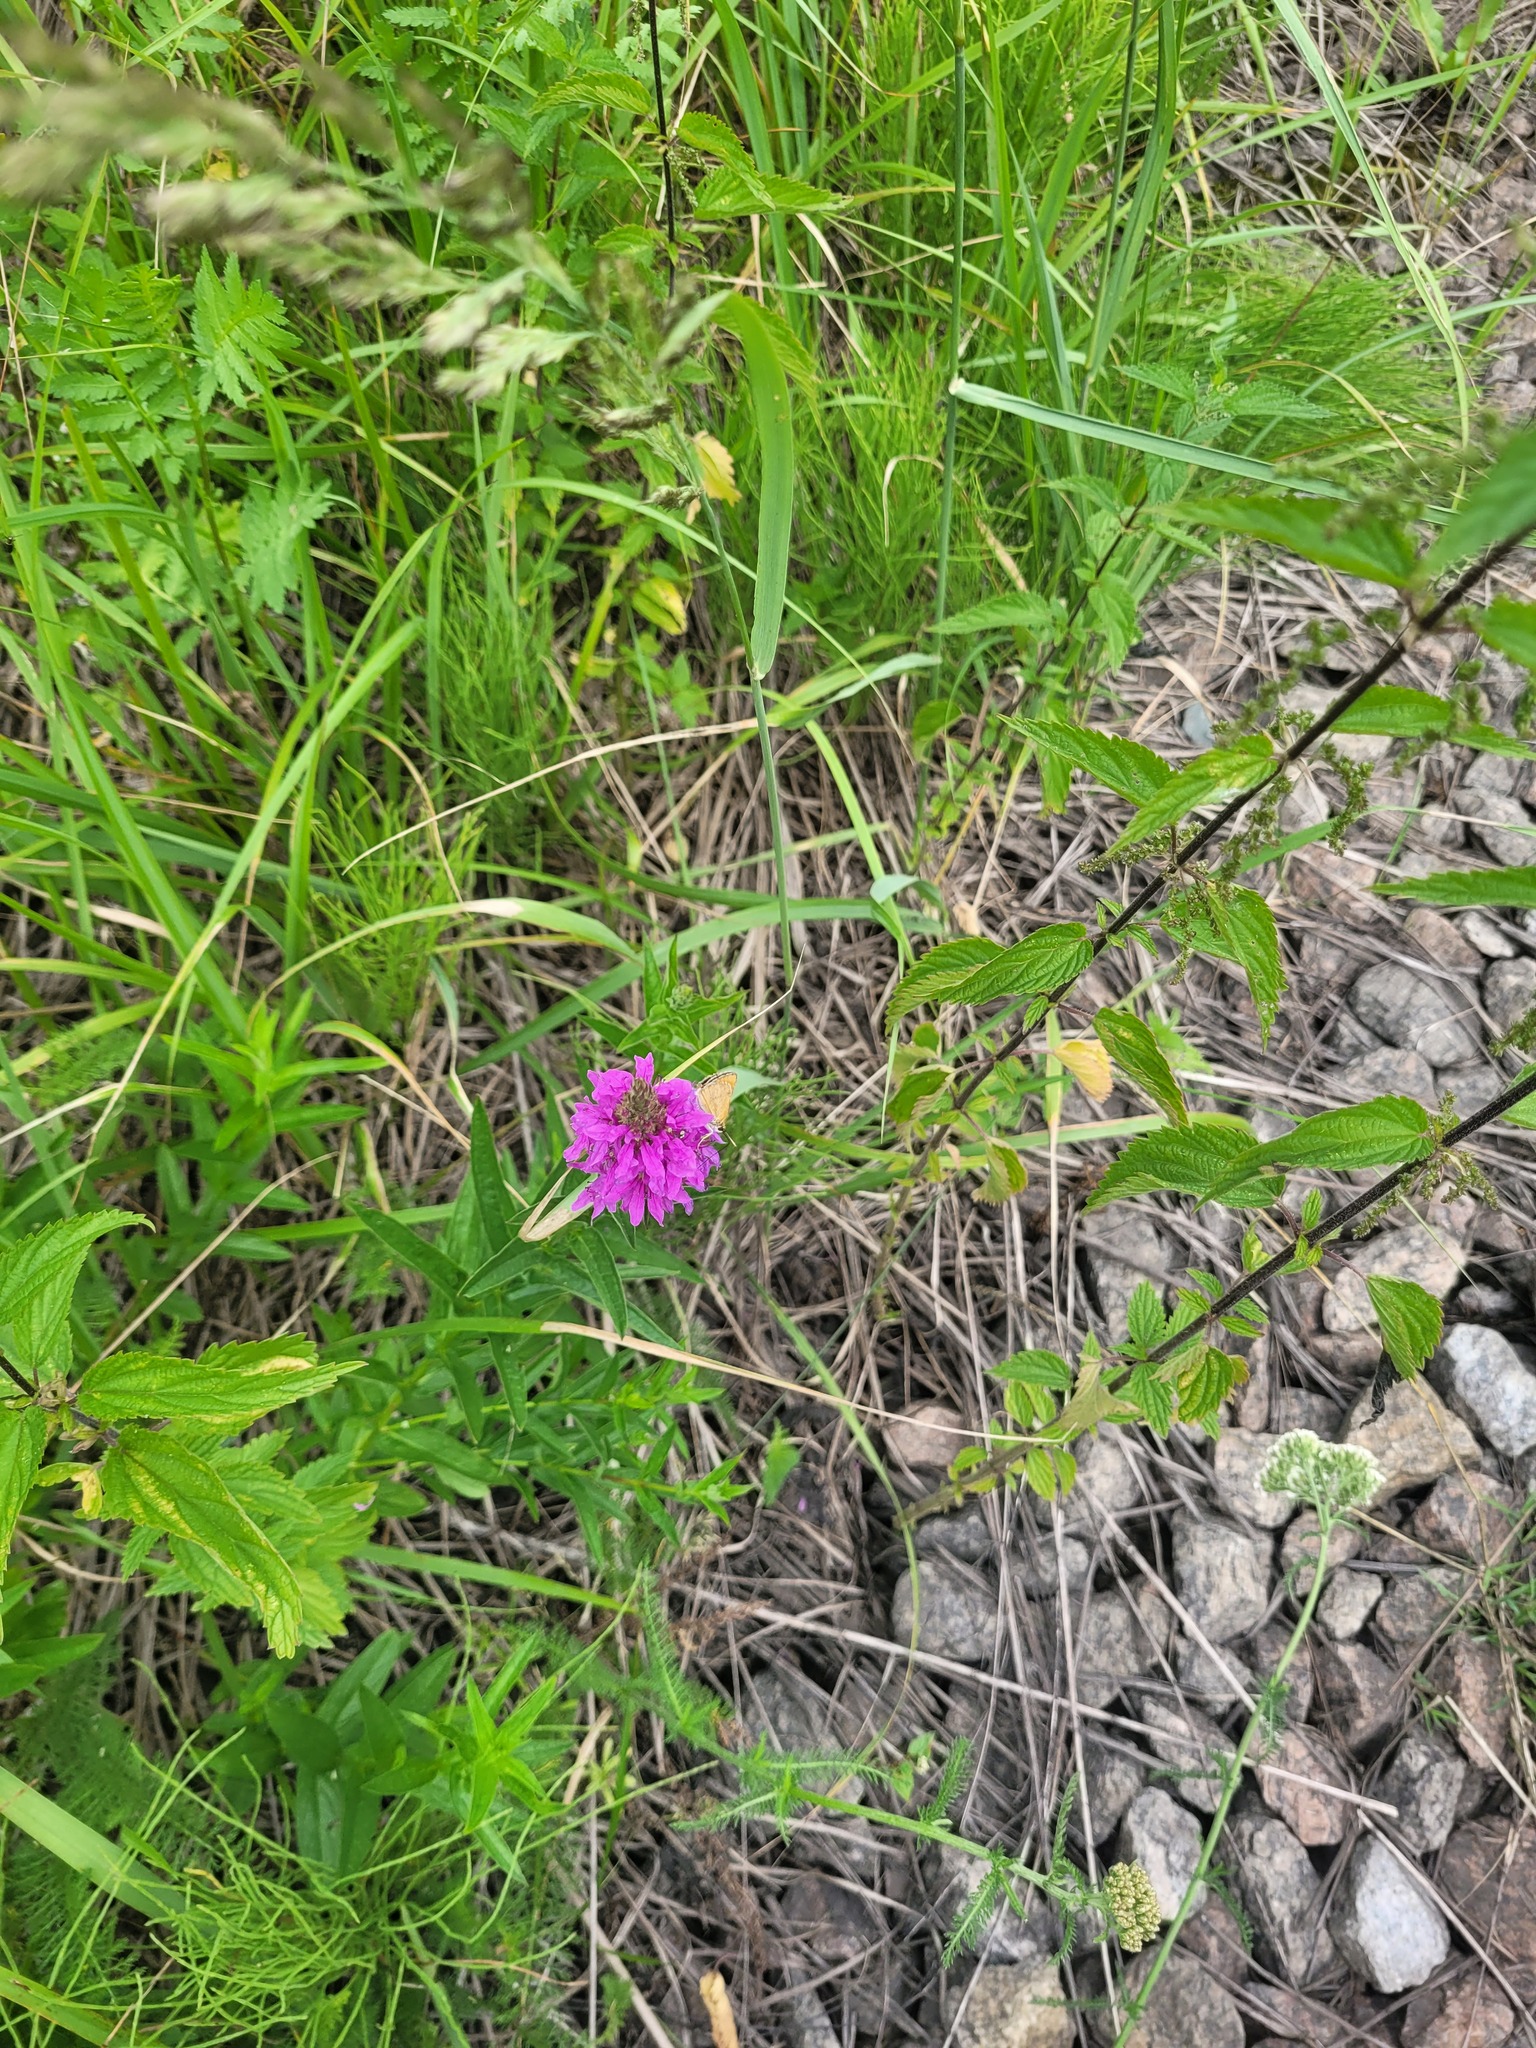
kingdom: Plantae
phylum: Tracheophyta
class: Magnoliopsida
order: Myrtales
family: Lythraceae
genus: Lythrum
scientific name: Lythrum salicaria
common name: Purple loosestrife
